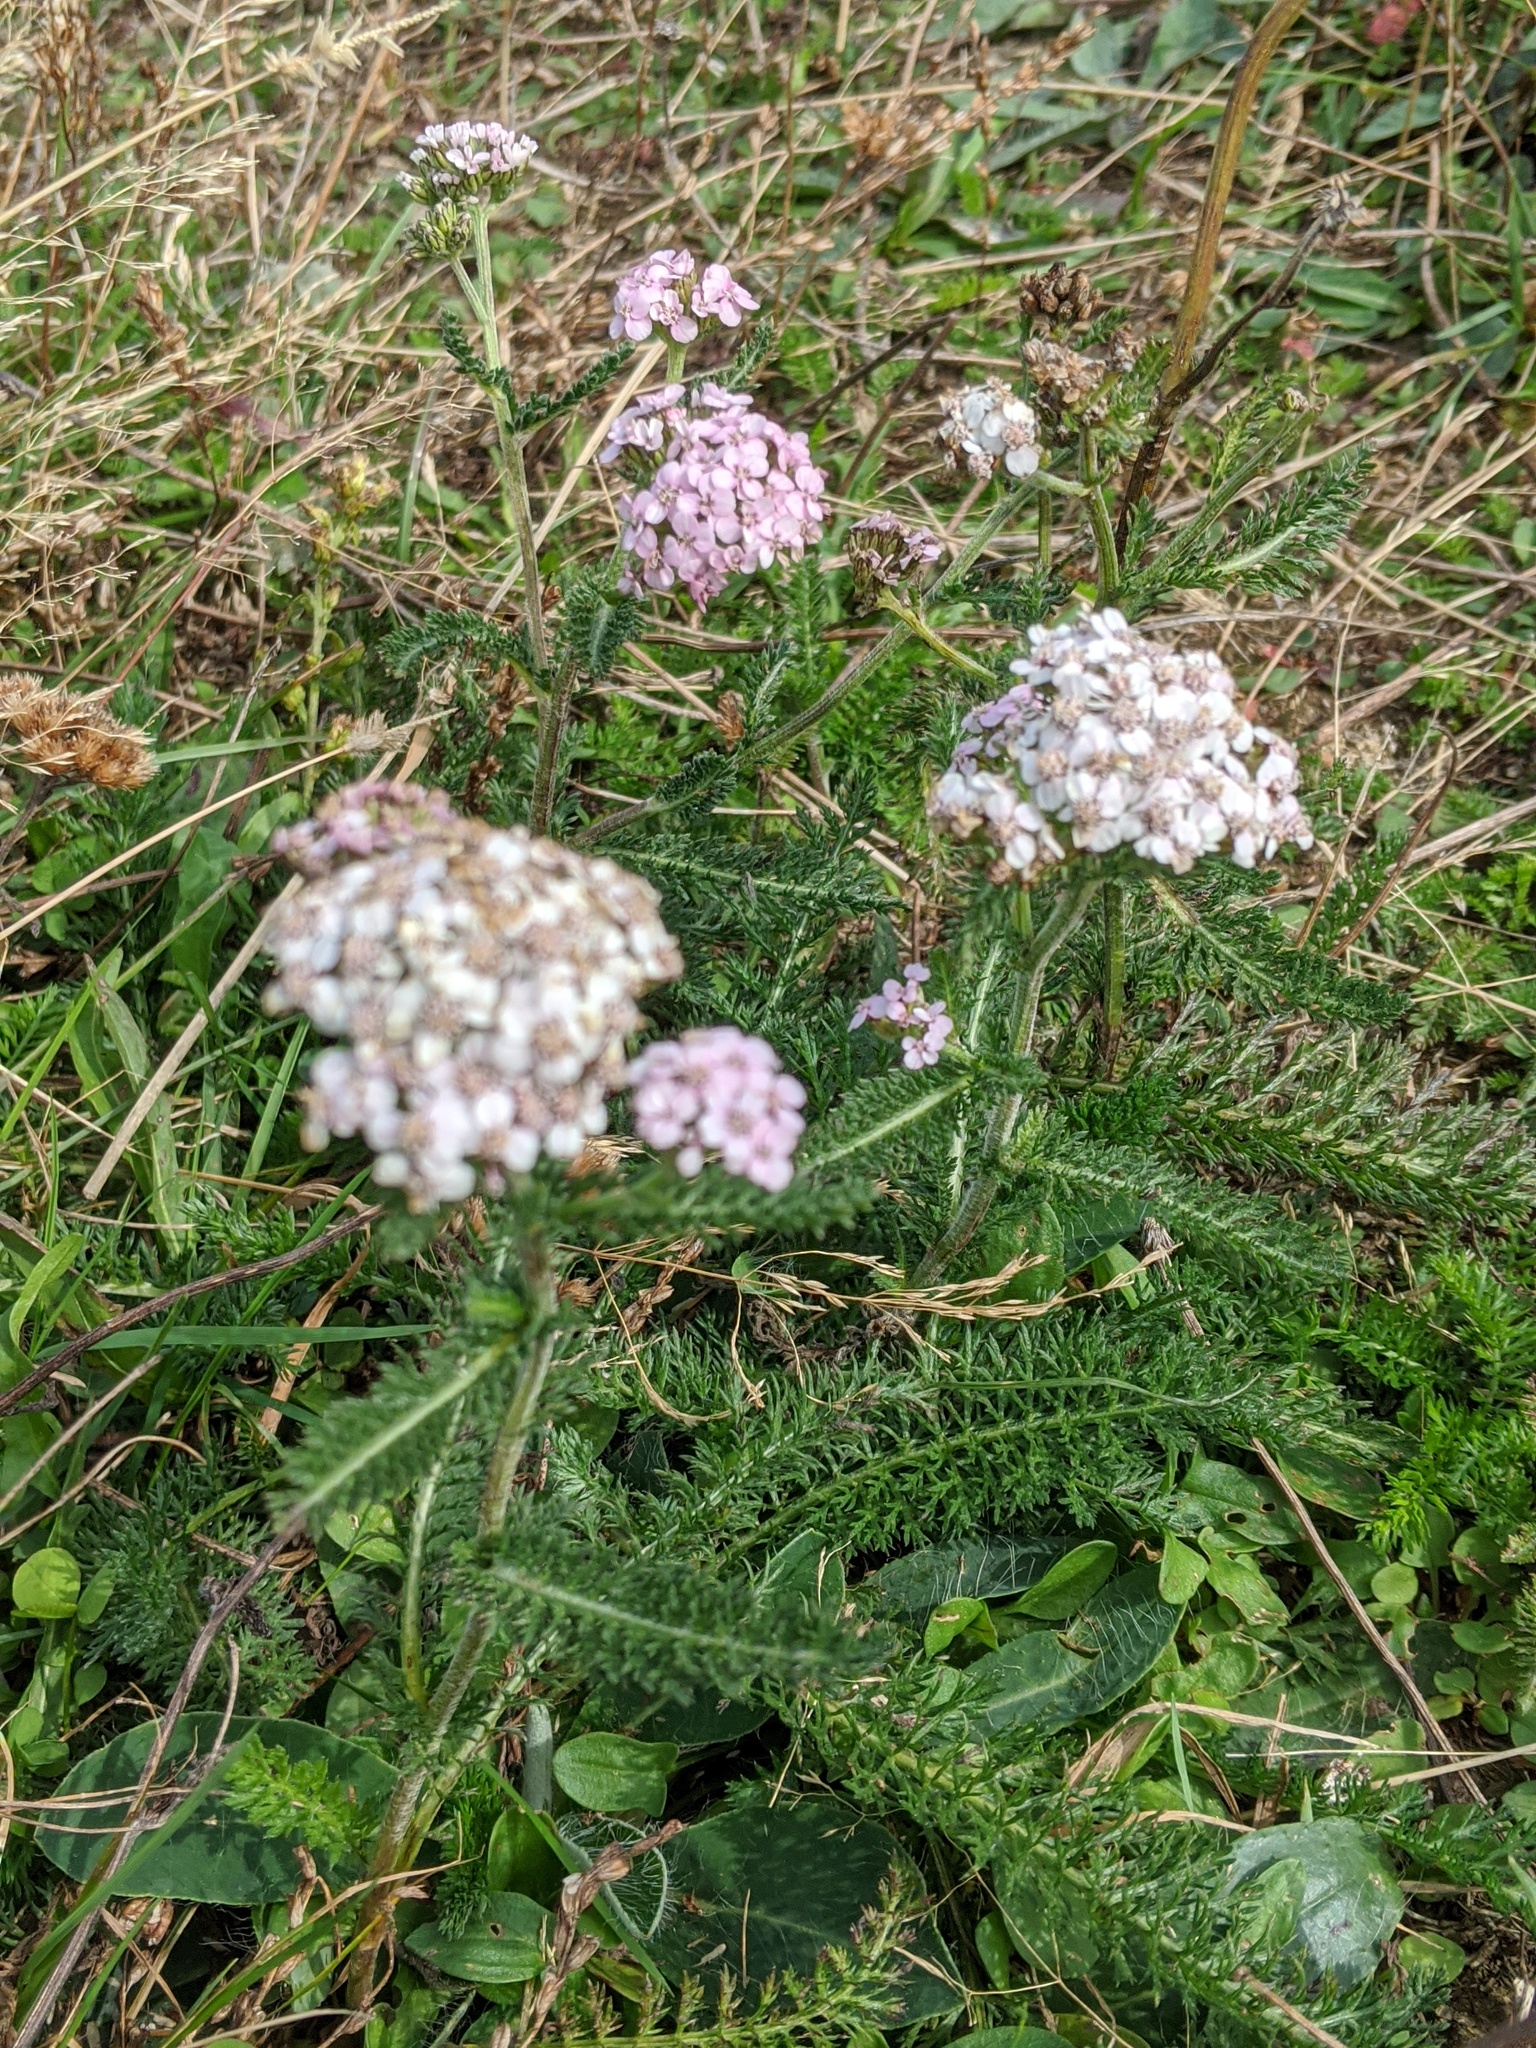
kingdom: Plantae
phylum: Tracheophyta
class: Magnoliopsida
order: Asterales
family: Asteraceae
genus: Achillea
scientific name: Achillea millefolium
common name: Yarrow
